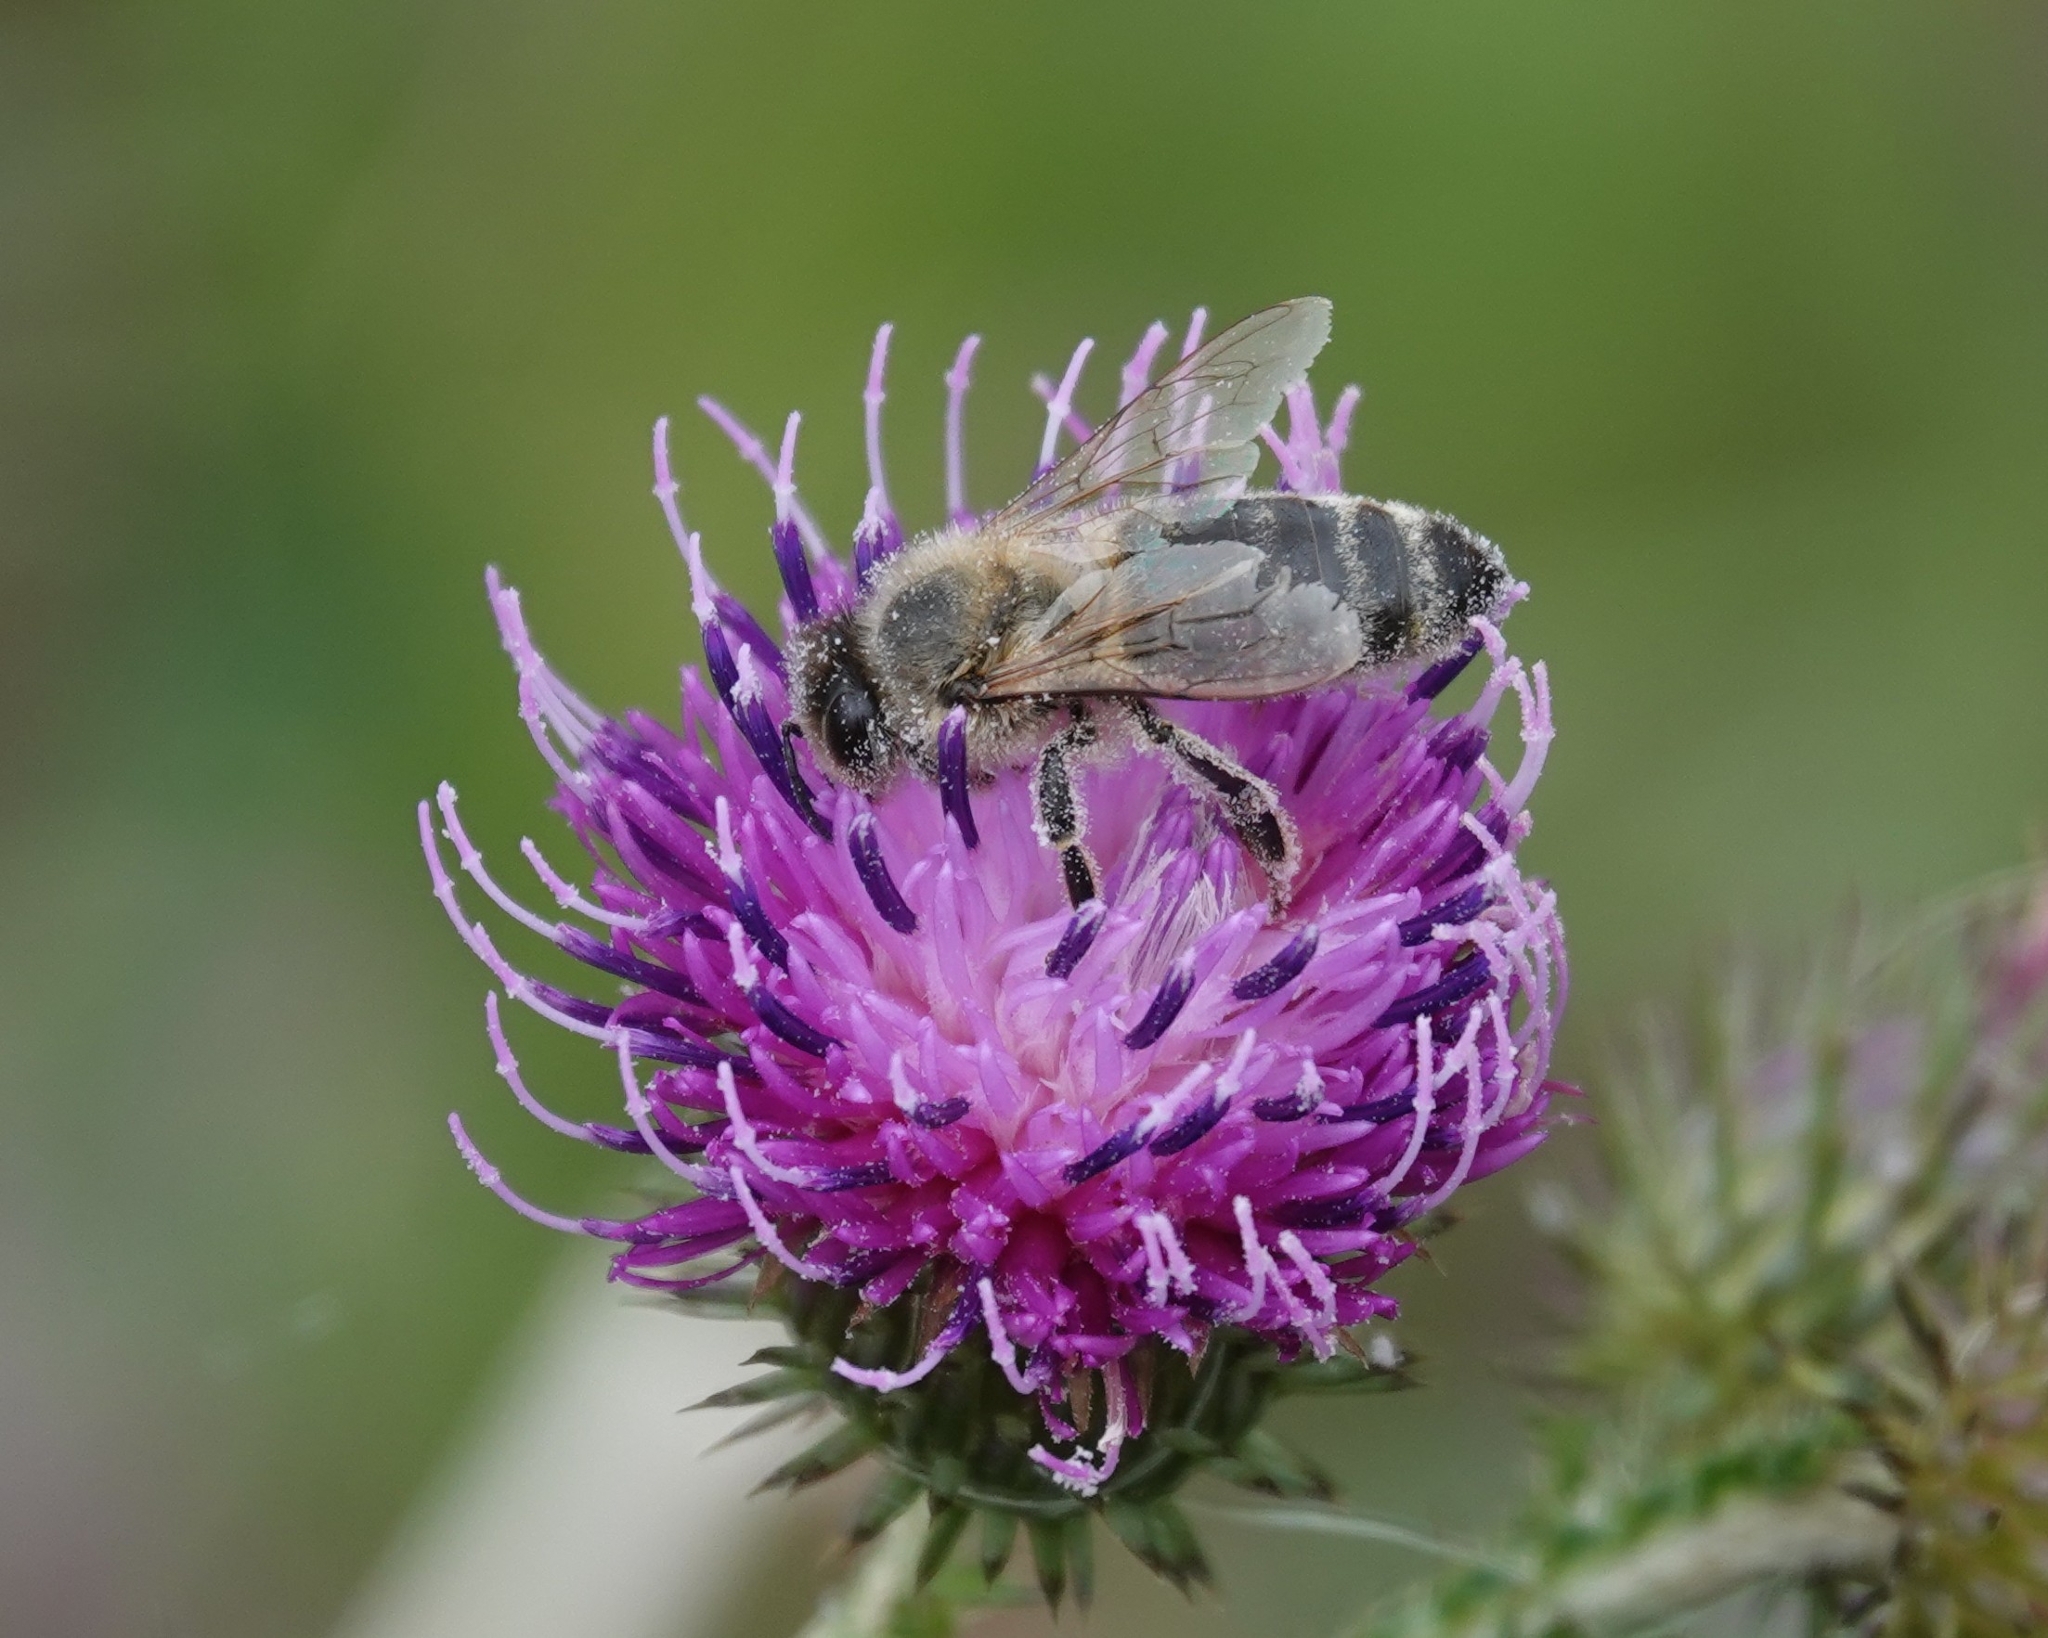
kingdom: Animalia
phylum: Arthropoda
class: Insecta
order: Hymenoptera
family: Apidae
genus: Apis
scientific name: Apis mellifera
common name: Honey bee
